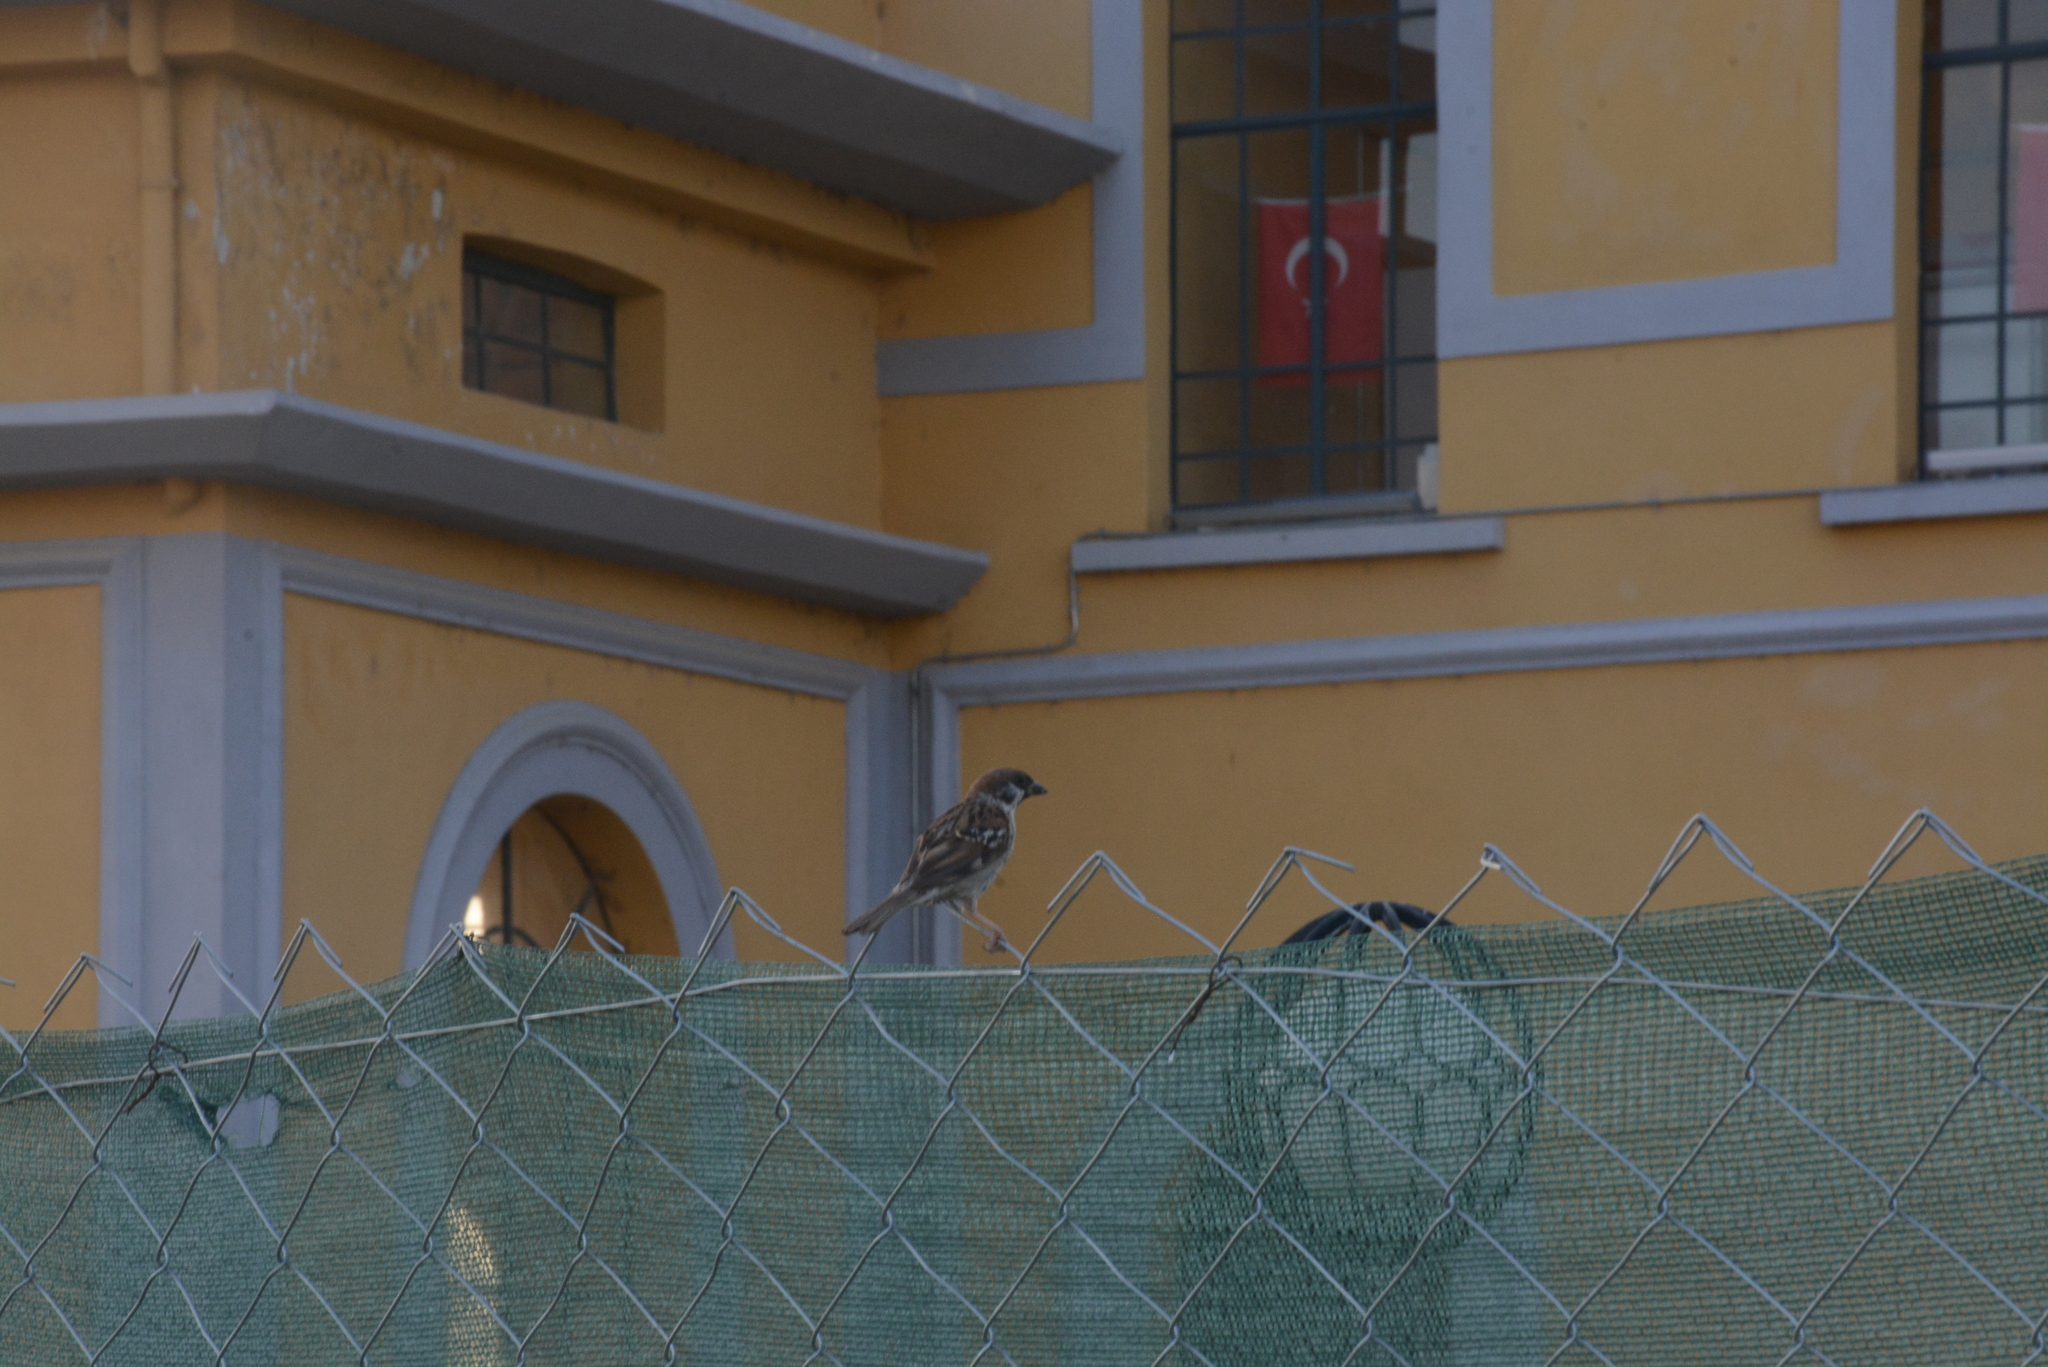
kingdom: Animalia
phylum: Chordata
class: Aves
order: Passeriformes
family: Passeridae
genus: Passer
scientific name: Passer montanus
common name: Eurasian tree sparrow
